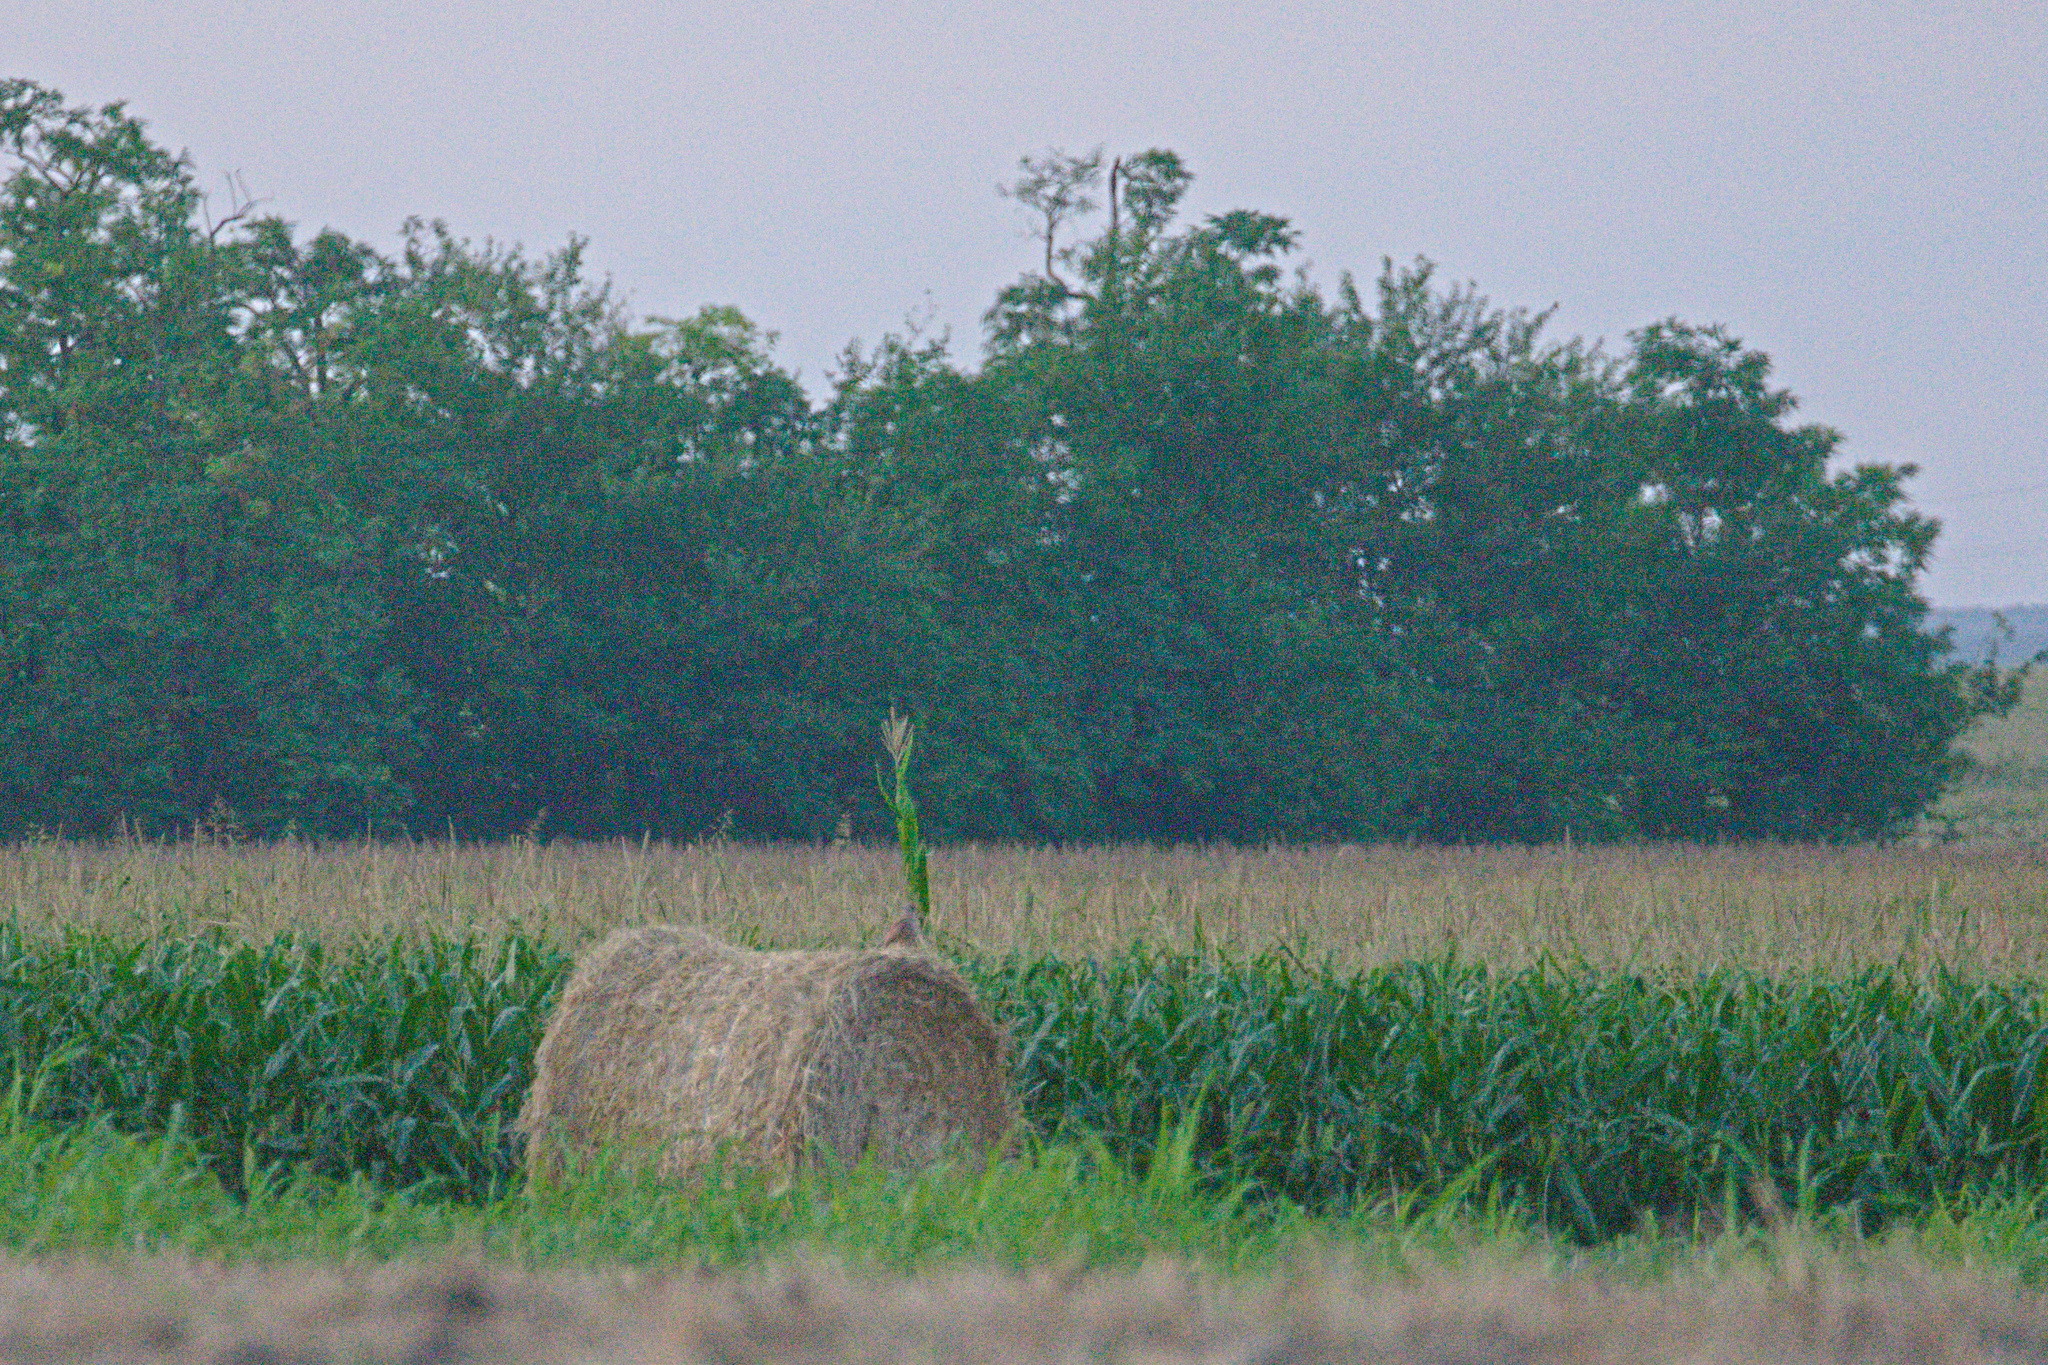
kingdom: Animalia
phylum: Chordata
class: Aves
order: Falconiformes
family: Falconidae
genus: Falco
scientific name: Falco tinnunculus
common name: Common kestrel
